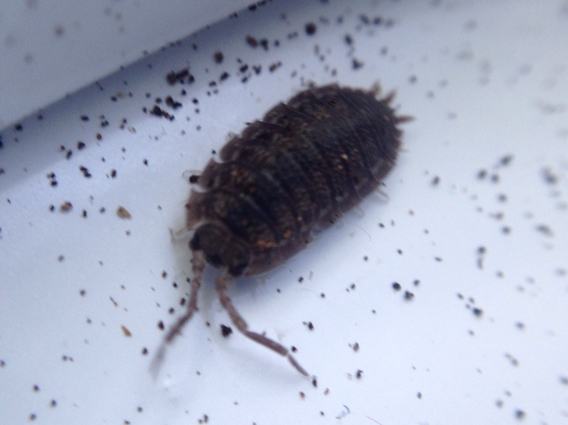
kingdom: Animalia
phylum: Arthropoda
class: Malacostraca
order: Isopoda
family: Porcellionidae
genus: Porcellio
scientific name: Porcellio scaber
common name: Common rough woodlouse
